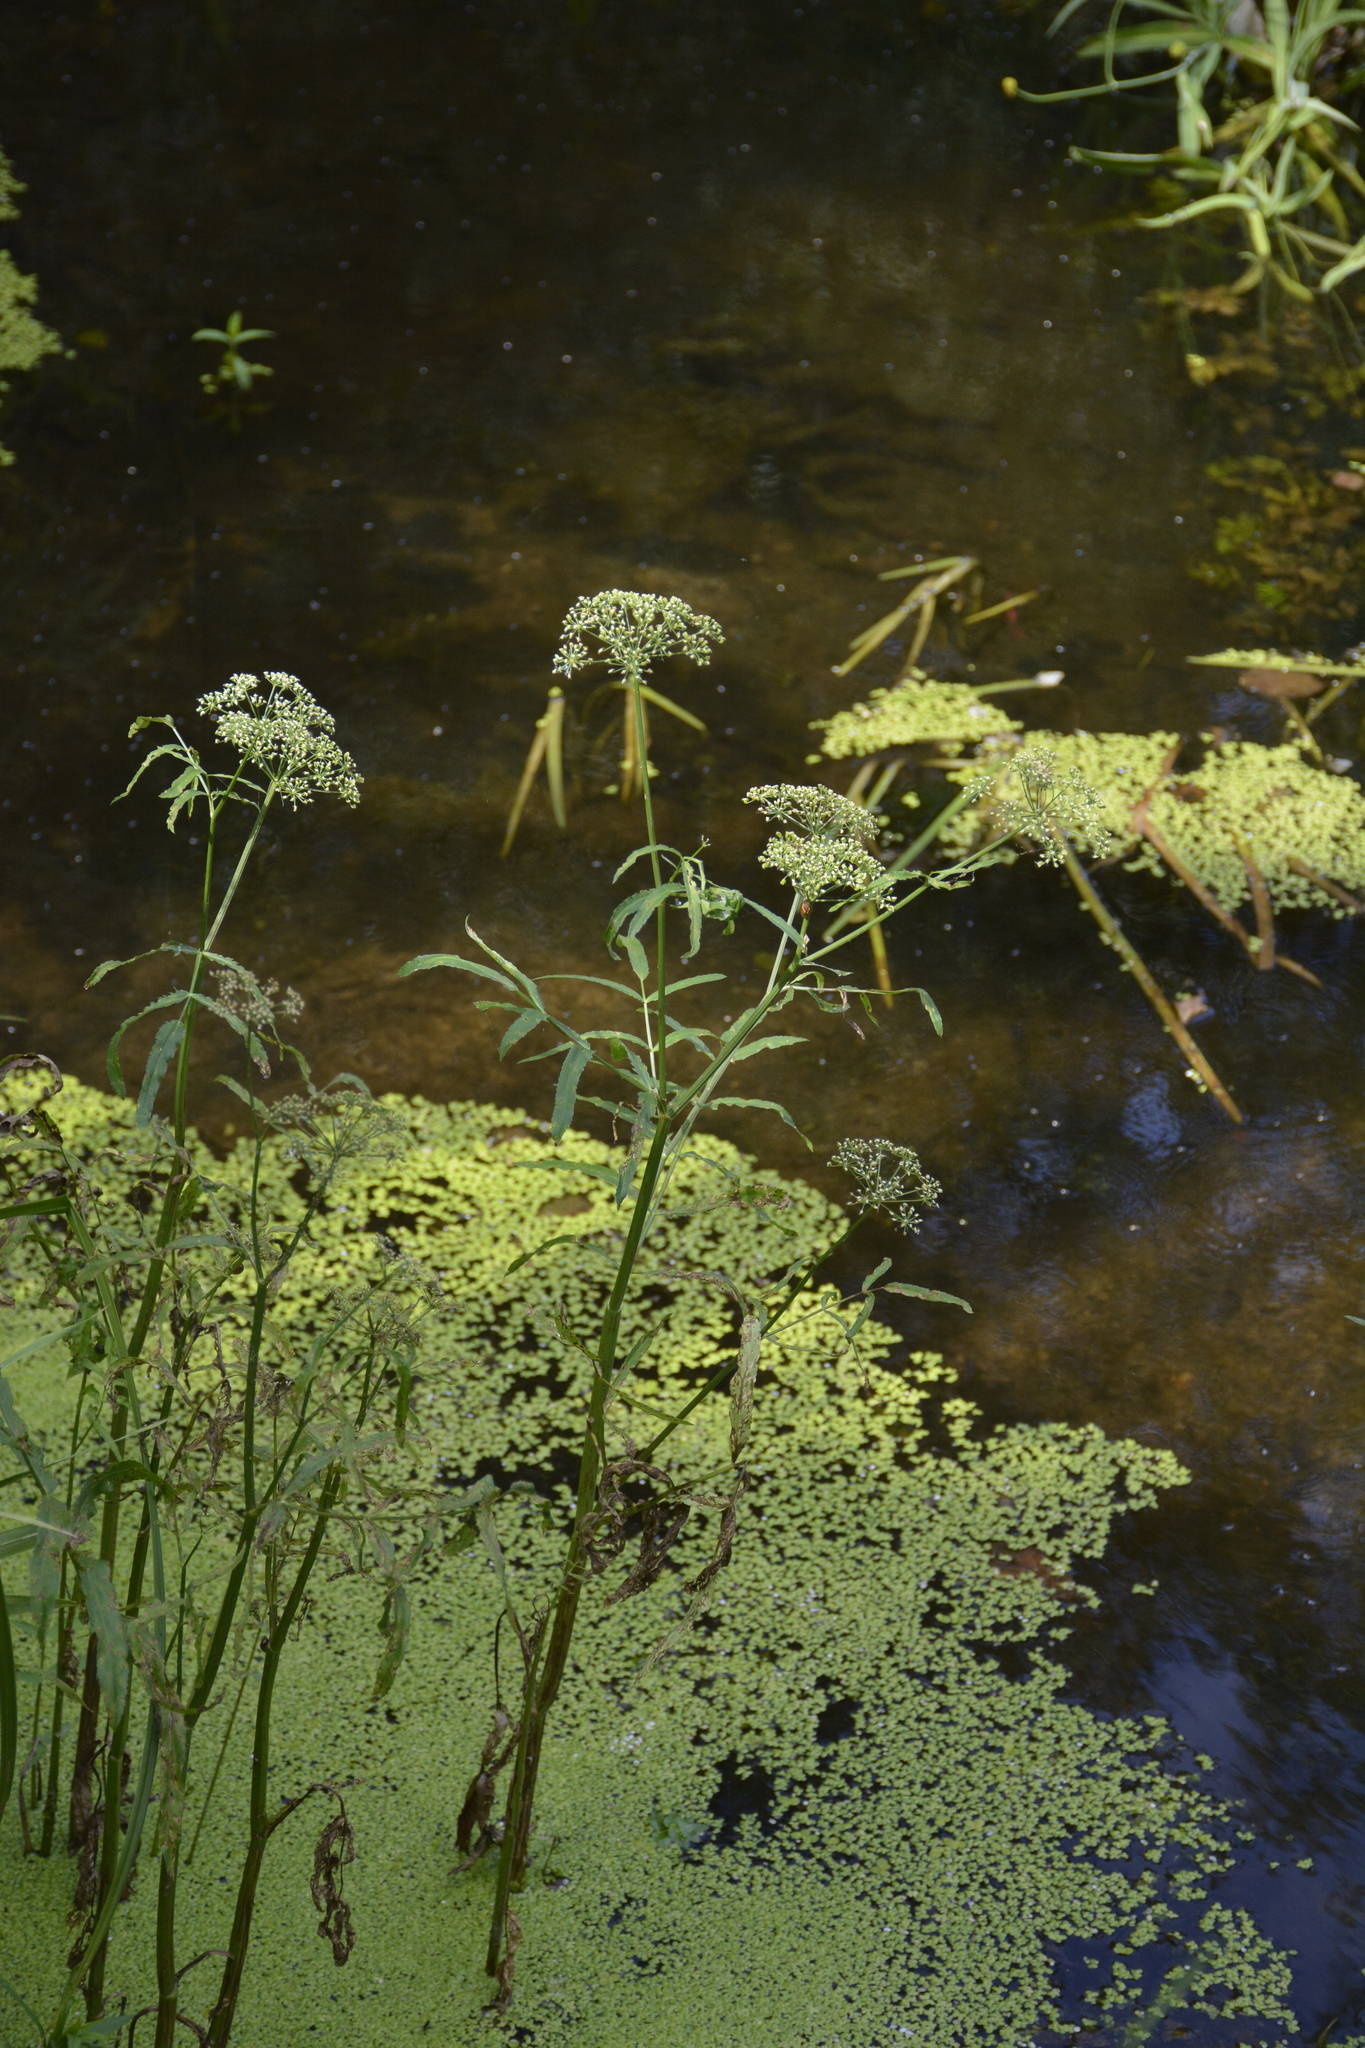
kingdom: Plantae
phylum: Tracheophyta
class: Magnoliopsida
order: Apiales
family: Apiaceae
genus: Sium
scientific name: Sium latifolium
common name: Greater water-parsnip
